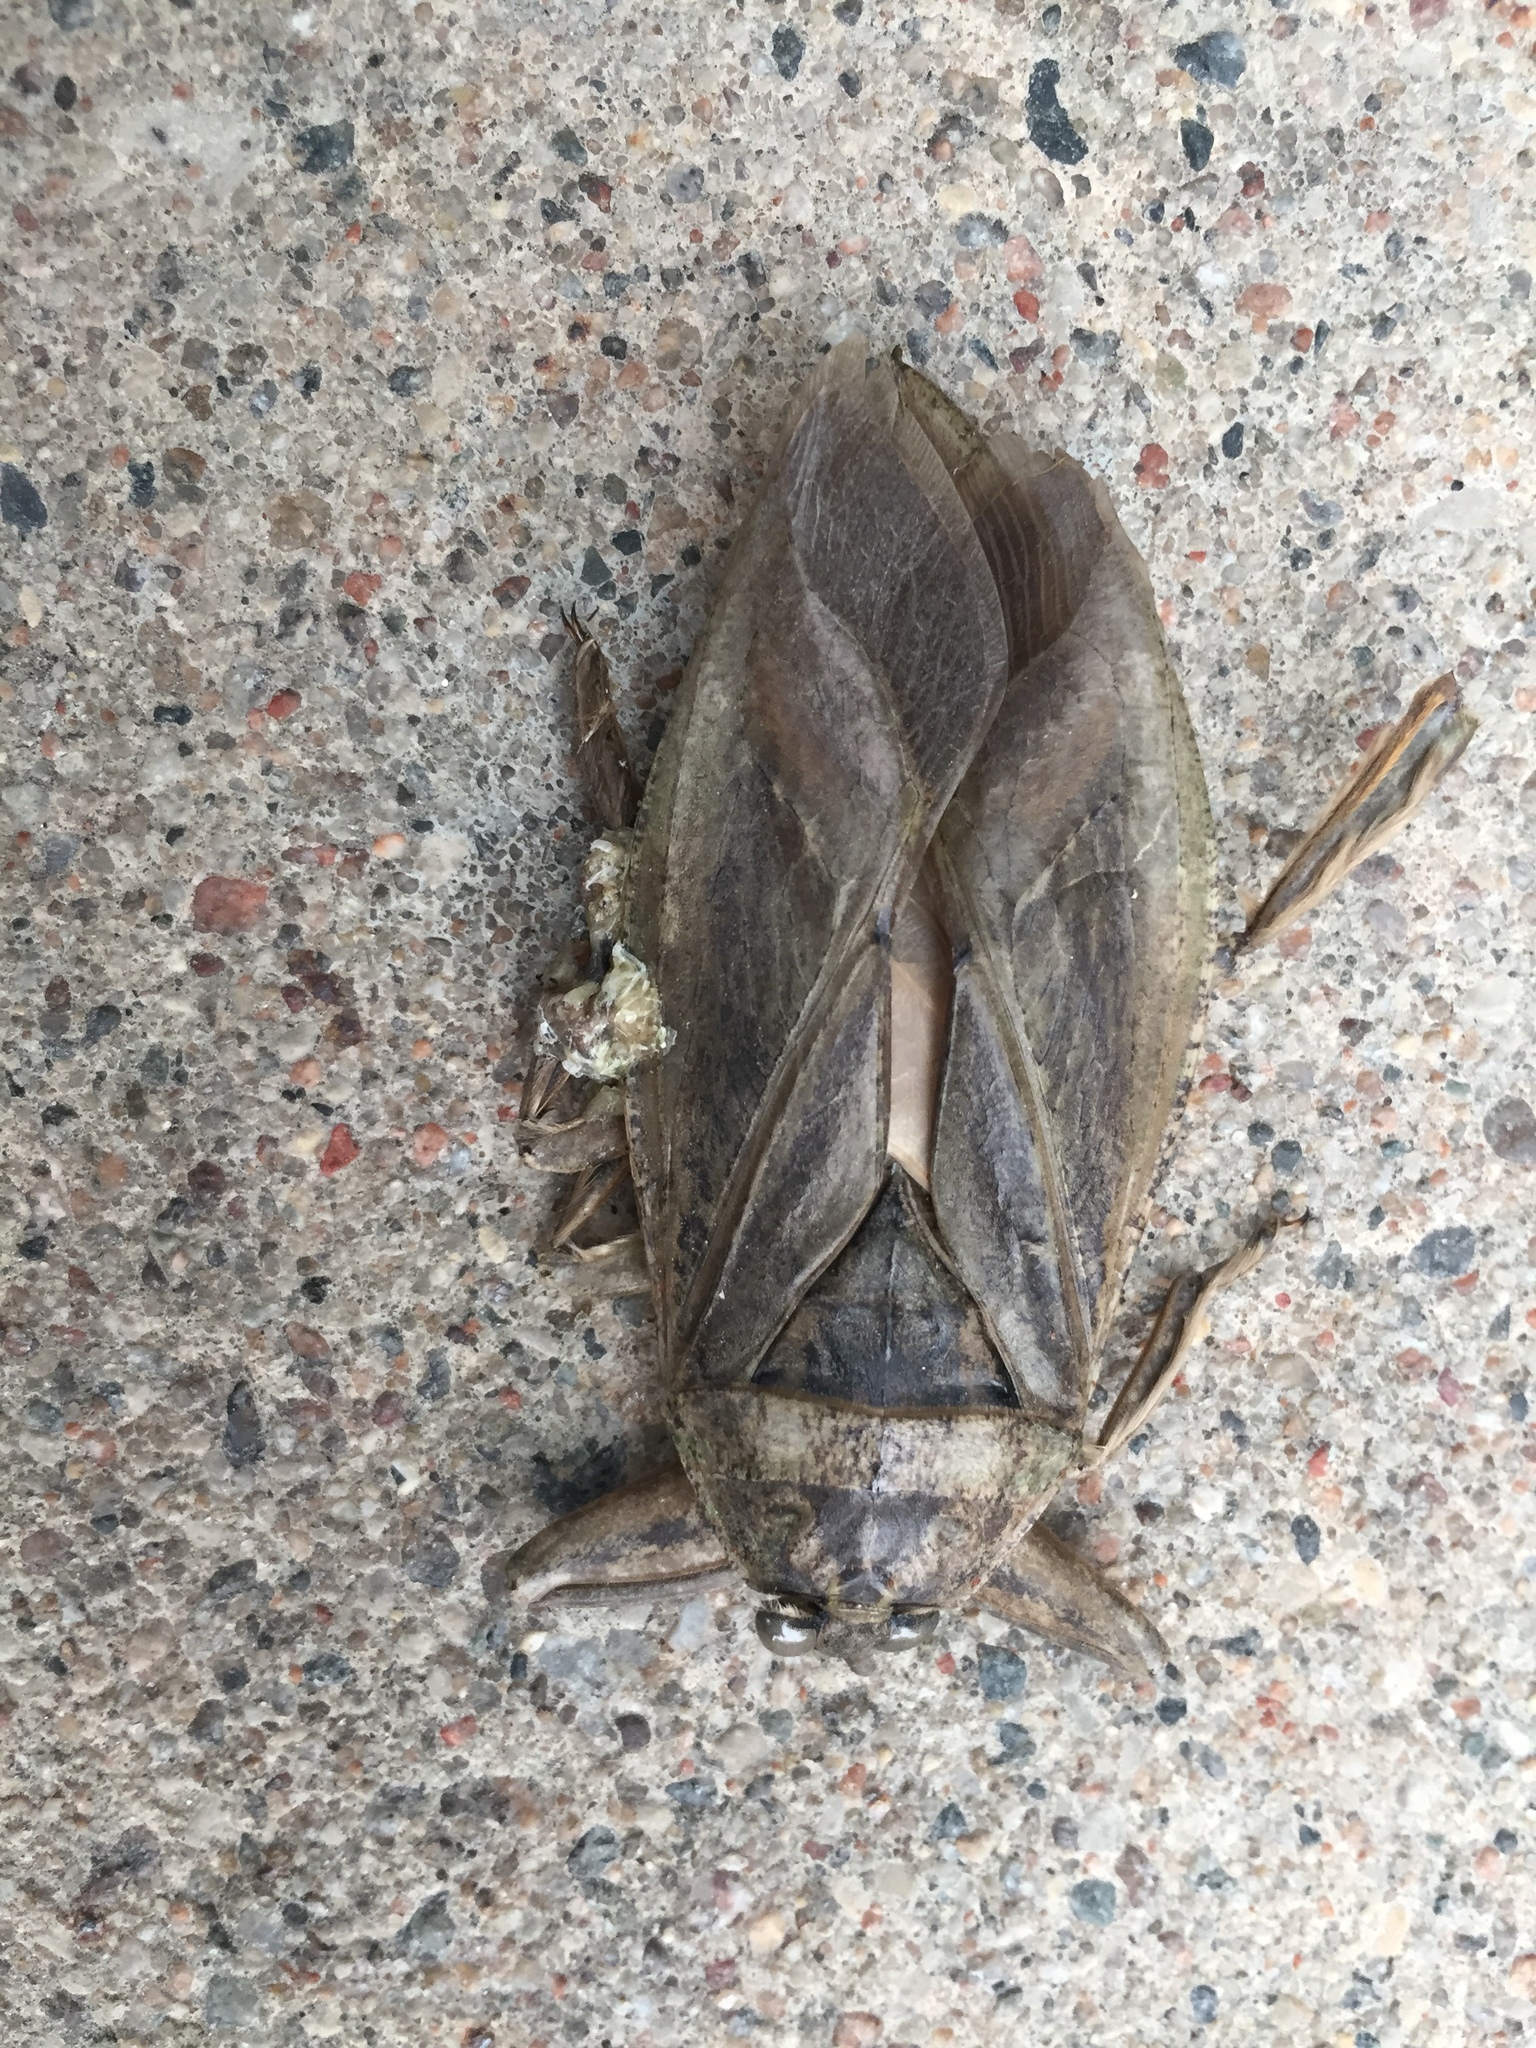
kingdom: Animalia
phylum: Arthropoda
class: Insecta
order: Hemiptera
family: Belostomatidae
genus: Lethocerus
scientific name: Lethocerus americanus
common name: Giant water bug
